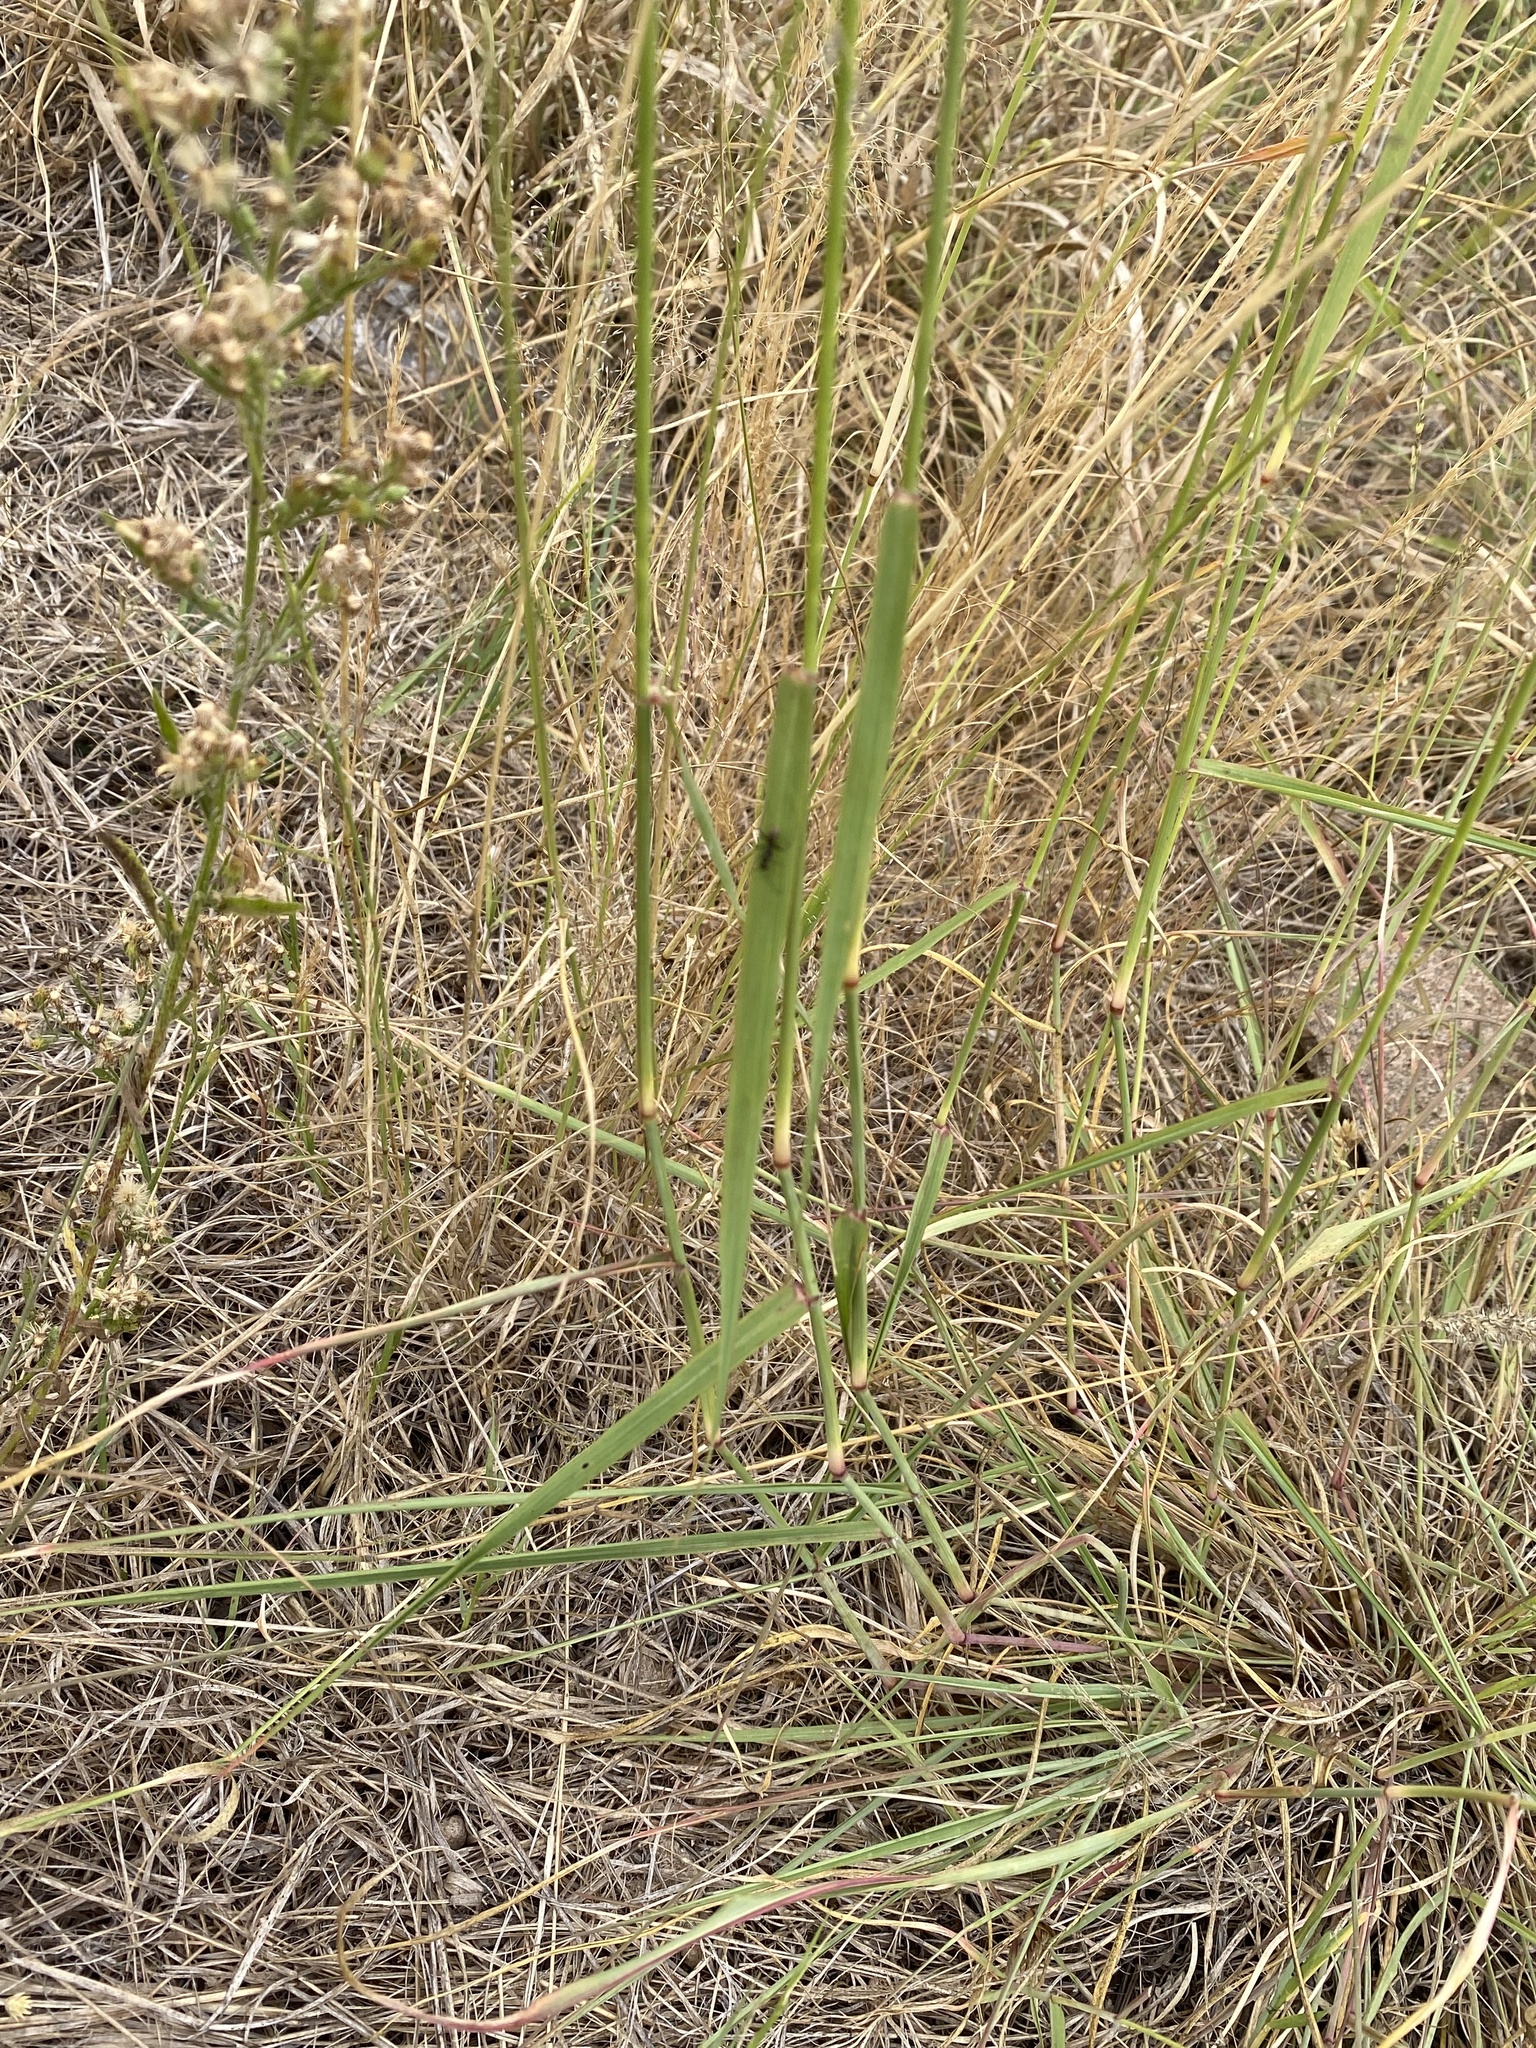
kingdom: Plantae
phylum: Tracheophyta
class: Liliopsida
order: Poales
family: Poaceae
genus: Eragrostis
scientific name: Eragrostis superba
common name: Wilman lovegrass
